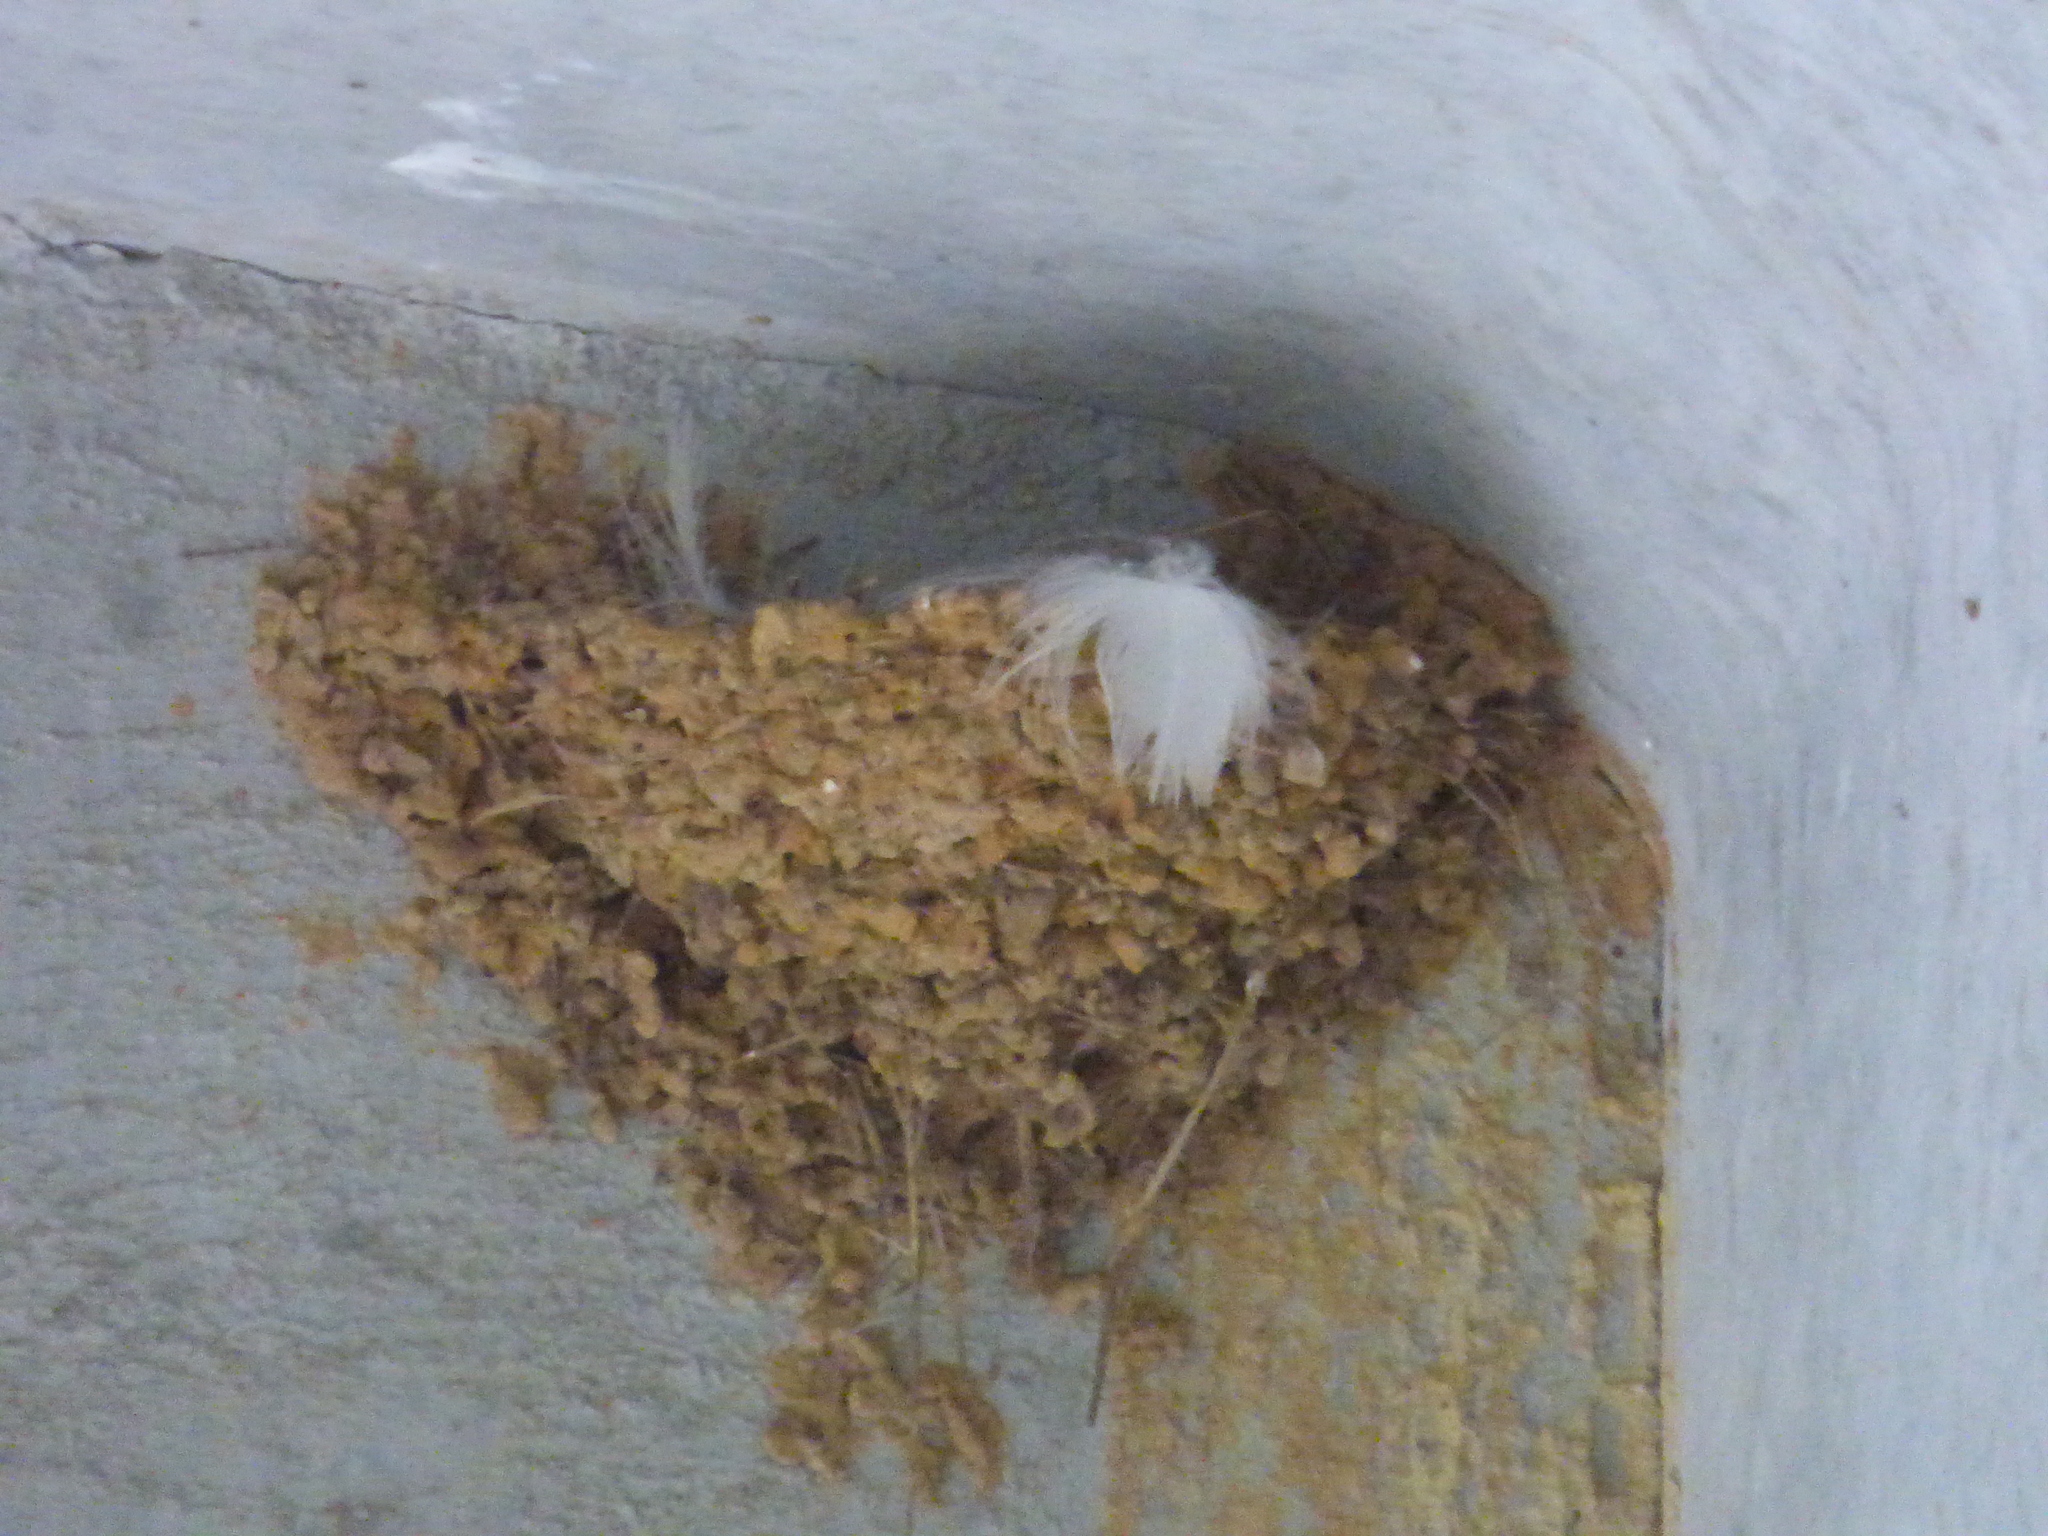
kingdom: Animalia
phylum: Chordata
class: Aves
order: Passeriformes
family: Hirundinidae
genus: Hirundo
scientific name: Hirundo rustica
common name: Barn swallow
